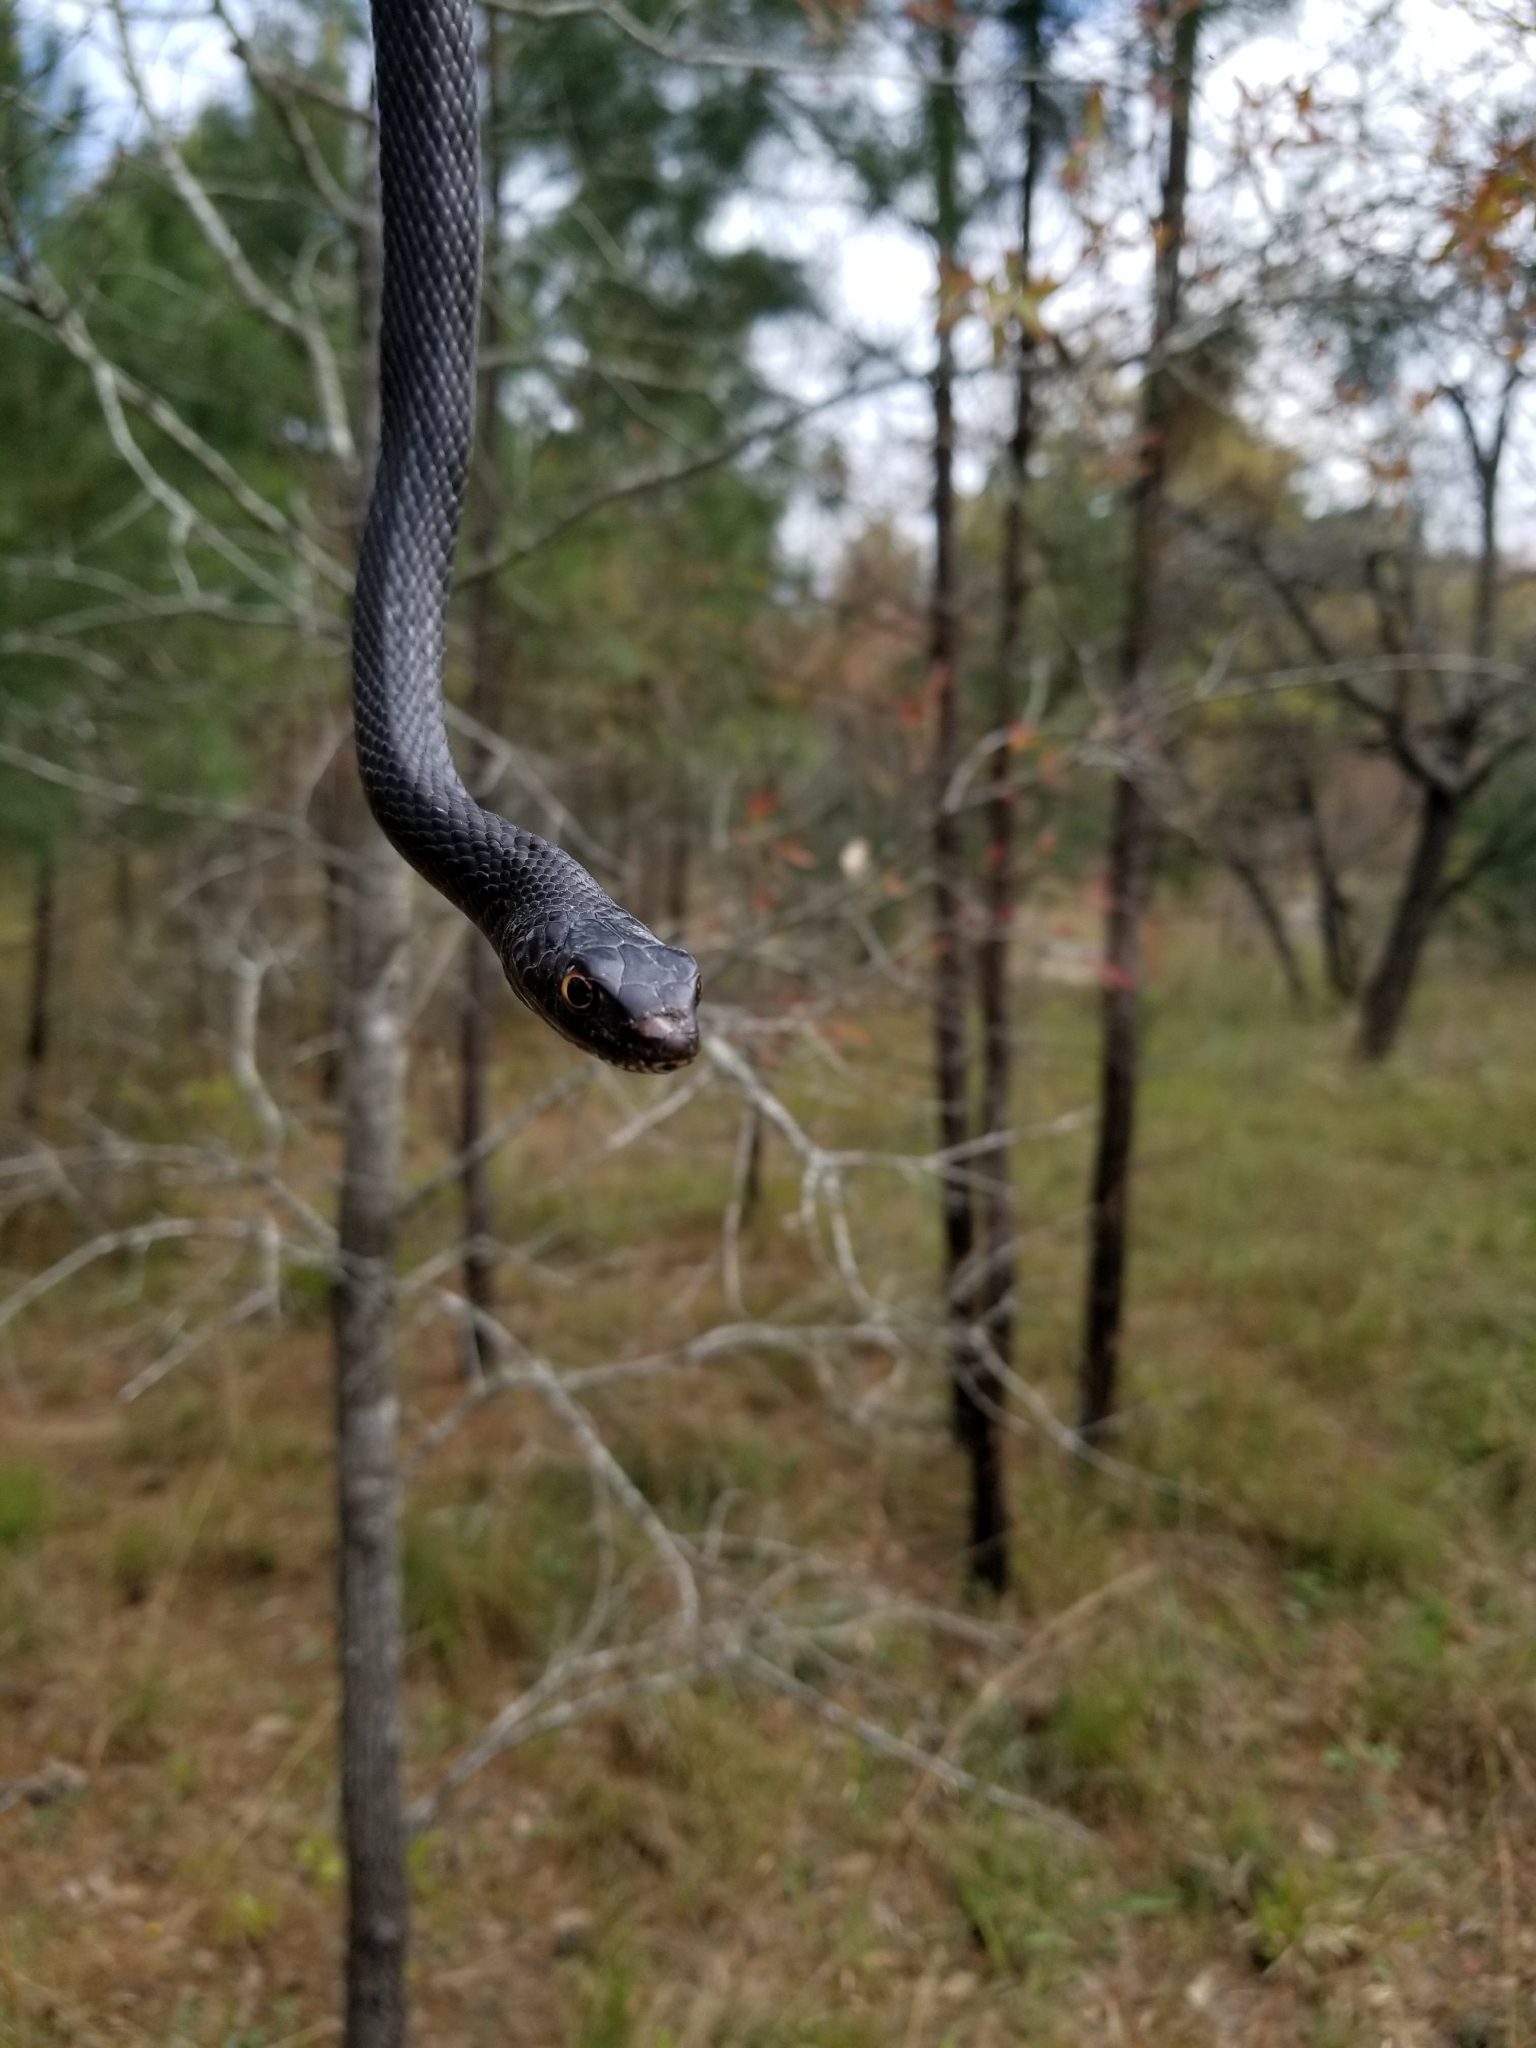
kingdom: Animalia
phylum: Chordata
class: Squamata
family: Colubridae
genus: Masticophis
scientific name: Masticophis flagellum
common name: Coachwhip
